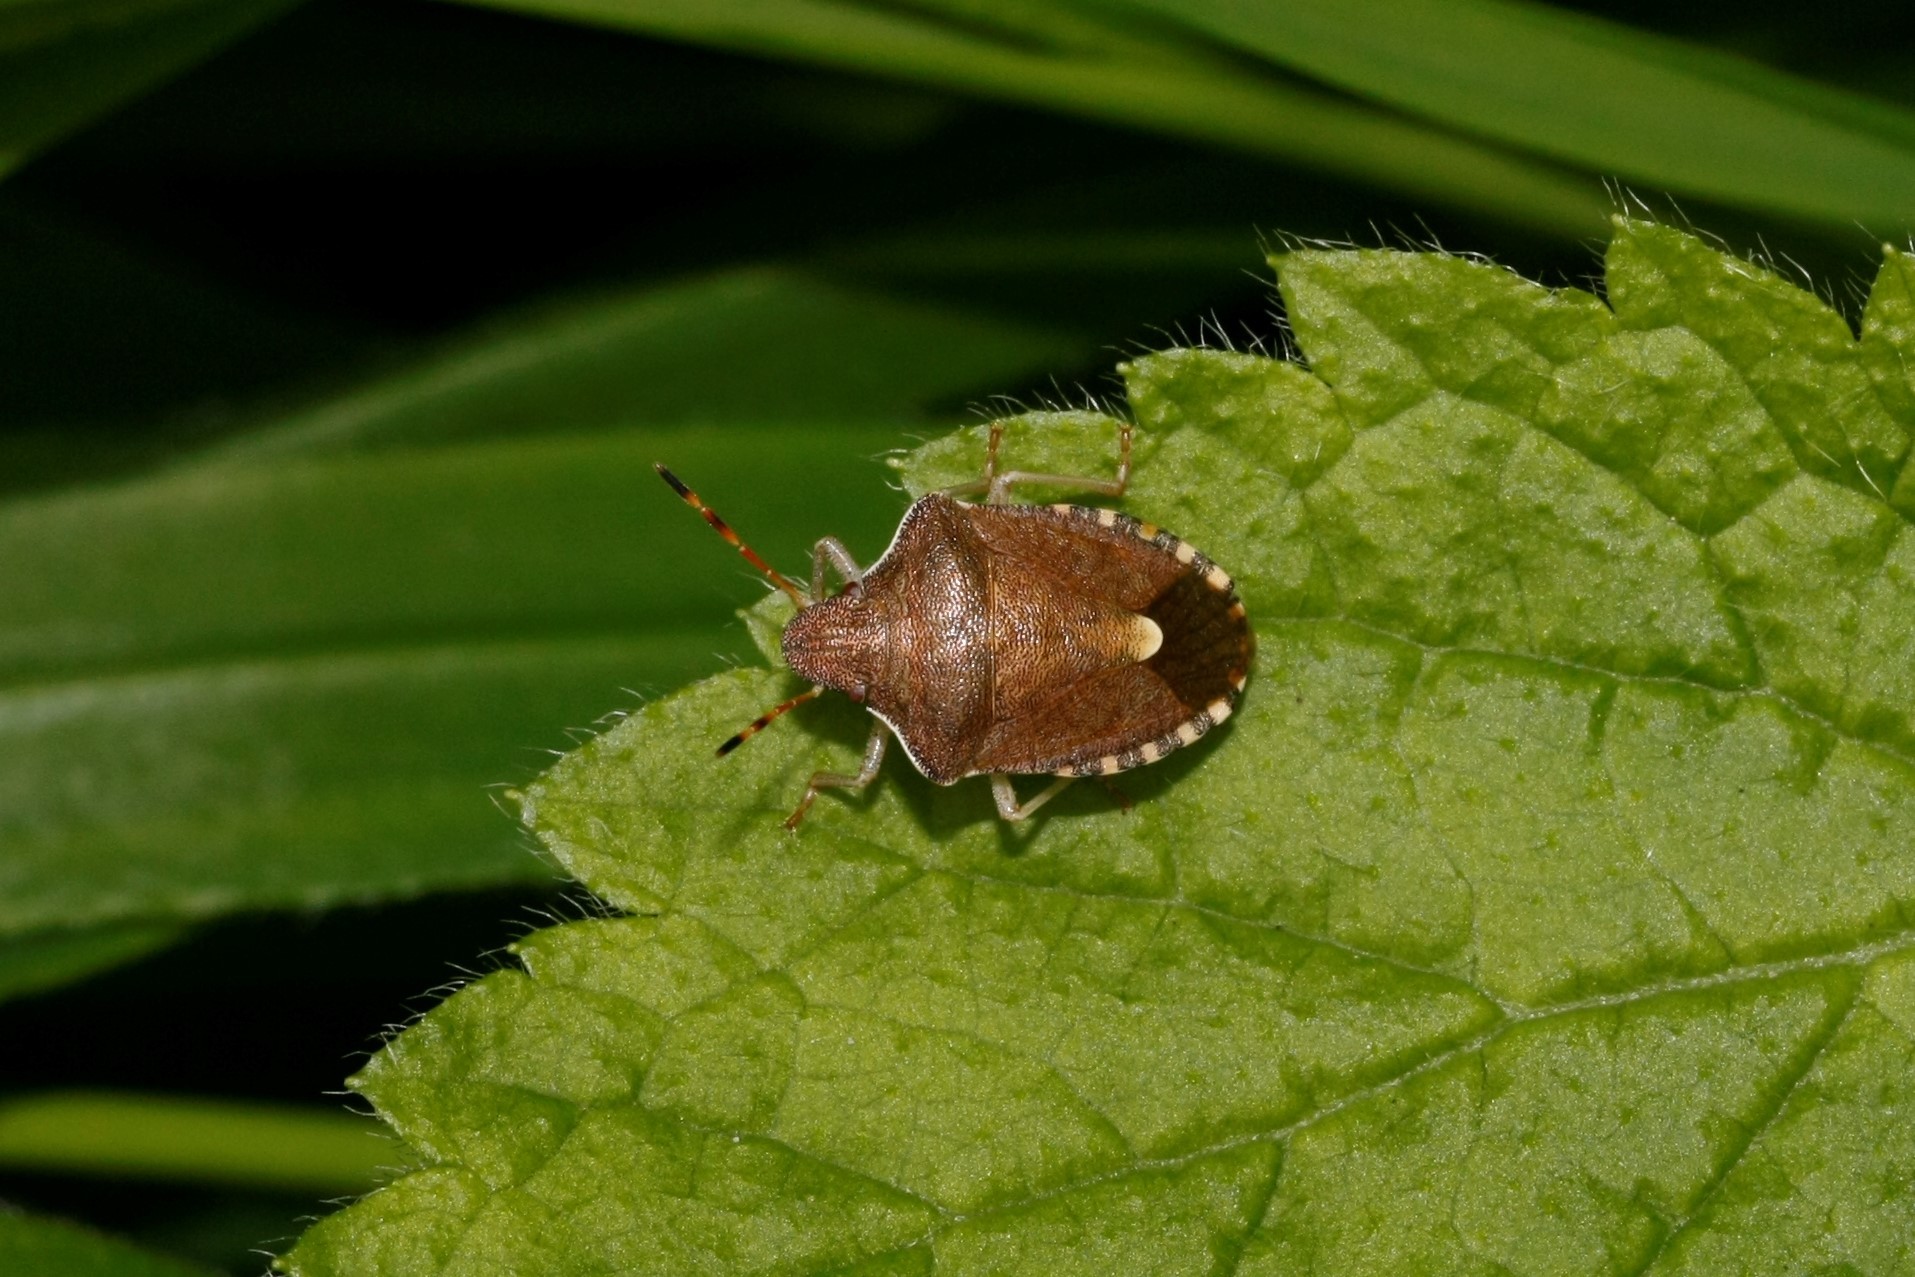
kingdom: Animalia
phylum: Arthropoda
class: Insecta
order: Hemiptera
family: Pentatomidae
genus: Holcostethus
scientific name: Holcostethus strictus
